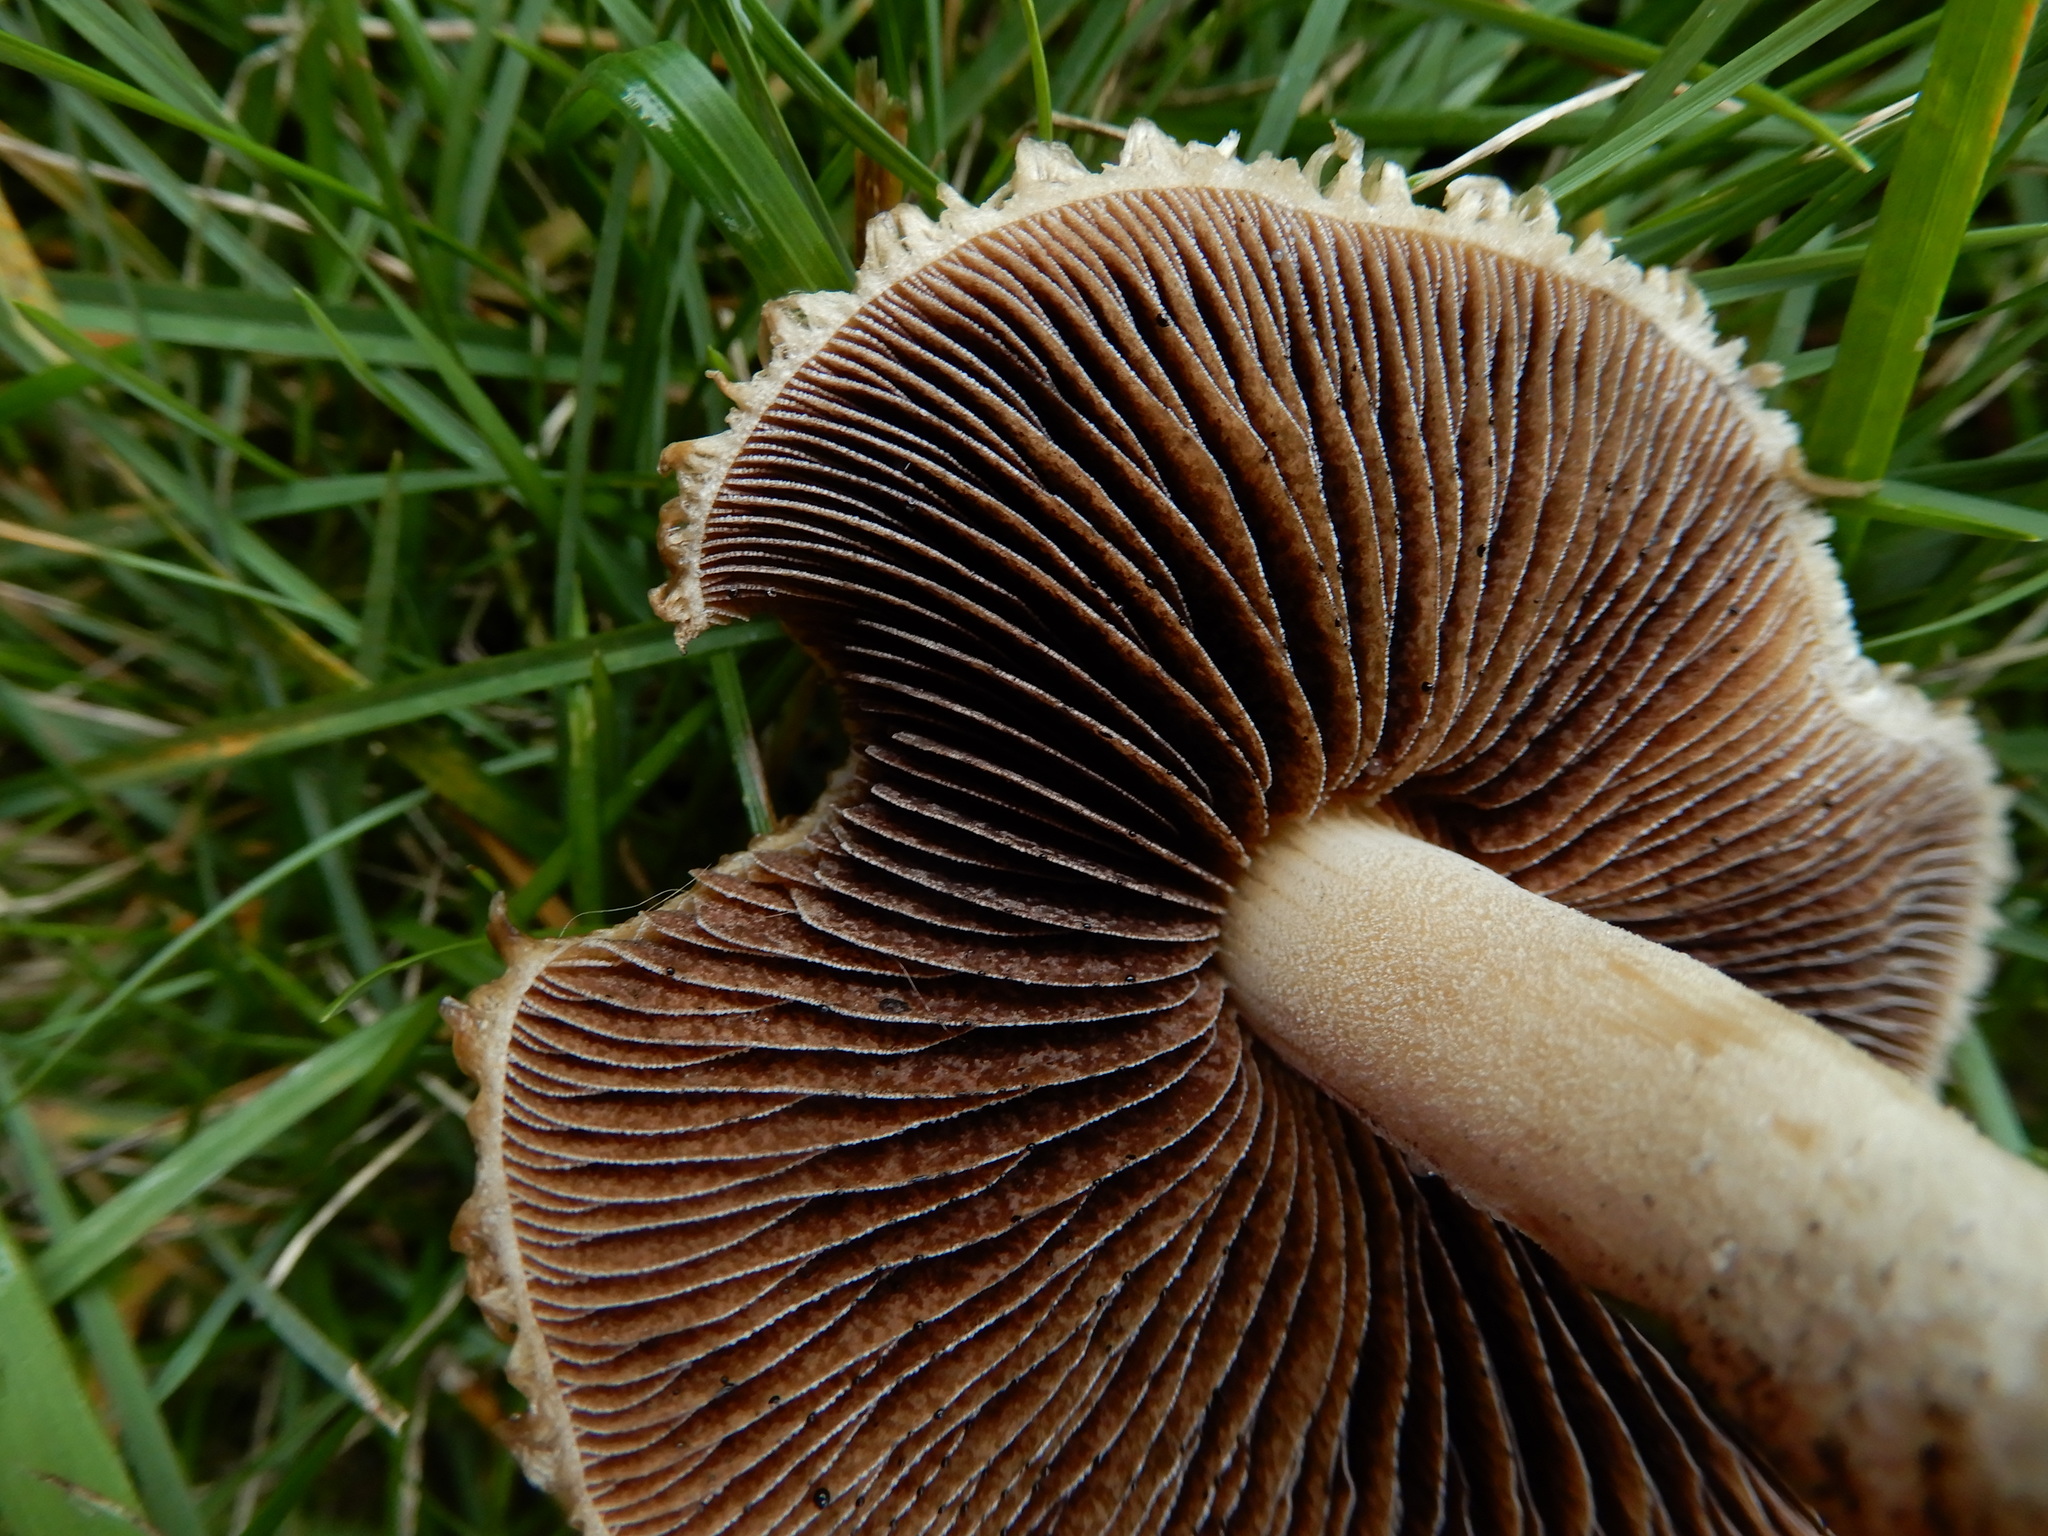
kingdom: Fungi
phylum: Basidiomycota
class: Agaricomycetes
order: Agaricales
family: Psathyrellaceae
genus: Psathyrella
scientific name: Psathyrella asperospora
